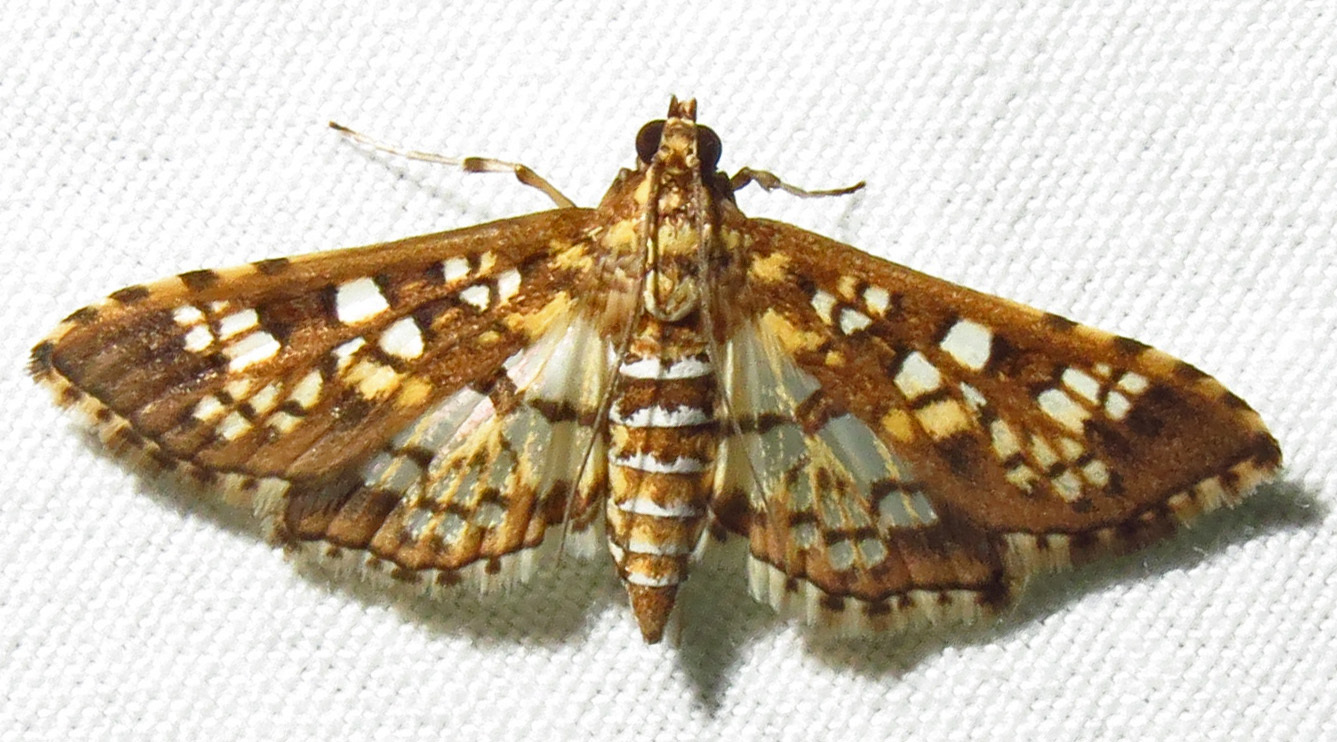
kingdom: Animalia
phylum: Arthropoda
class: Insecta
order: Lepidoptera
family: Crambidae
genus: Samea
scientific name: Samea ecclesialis
